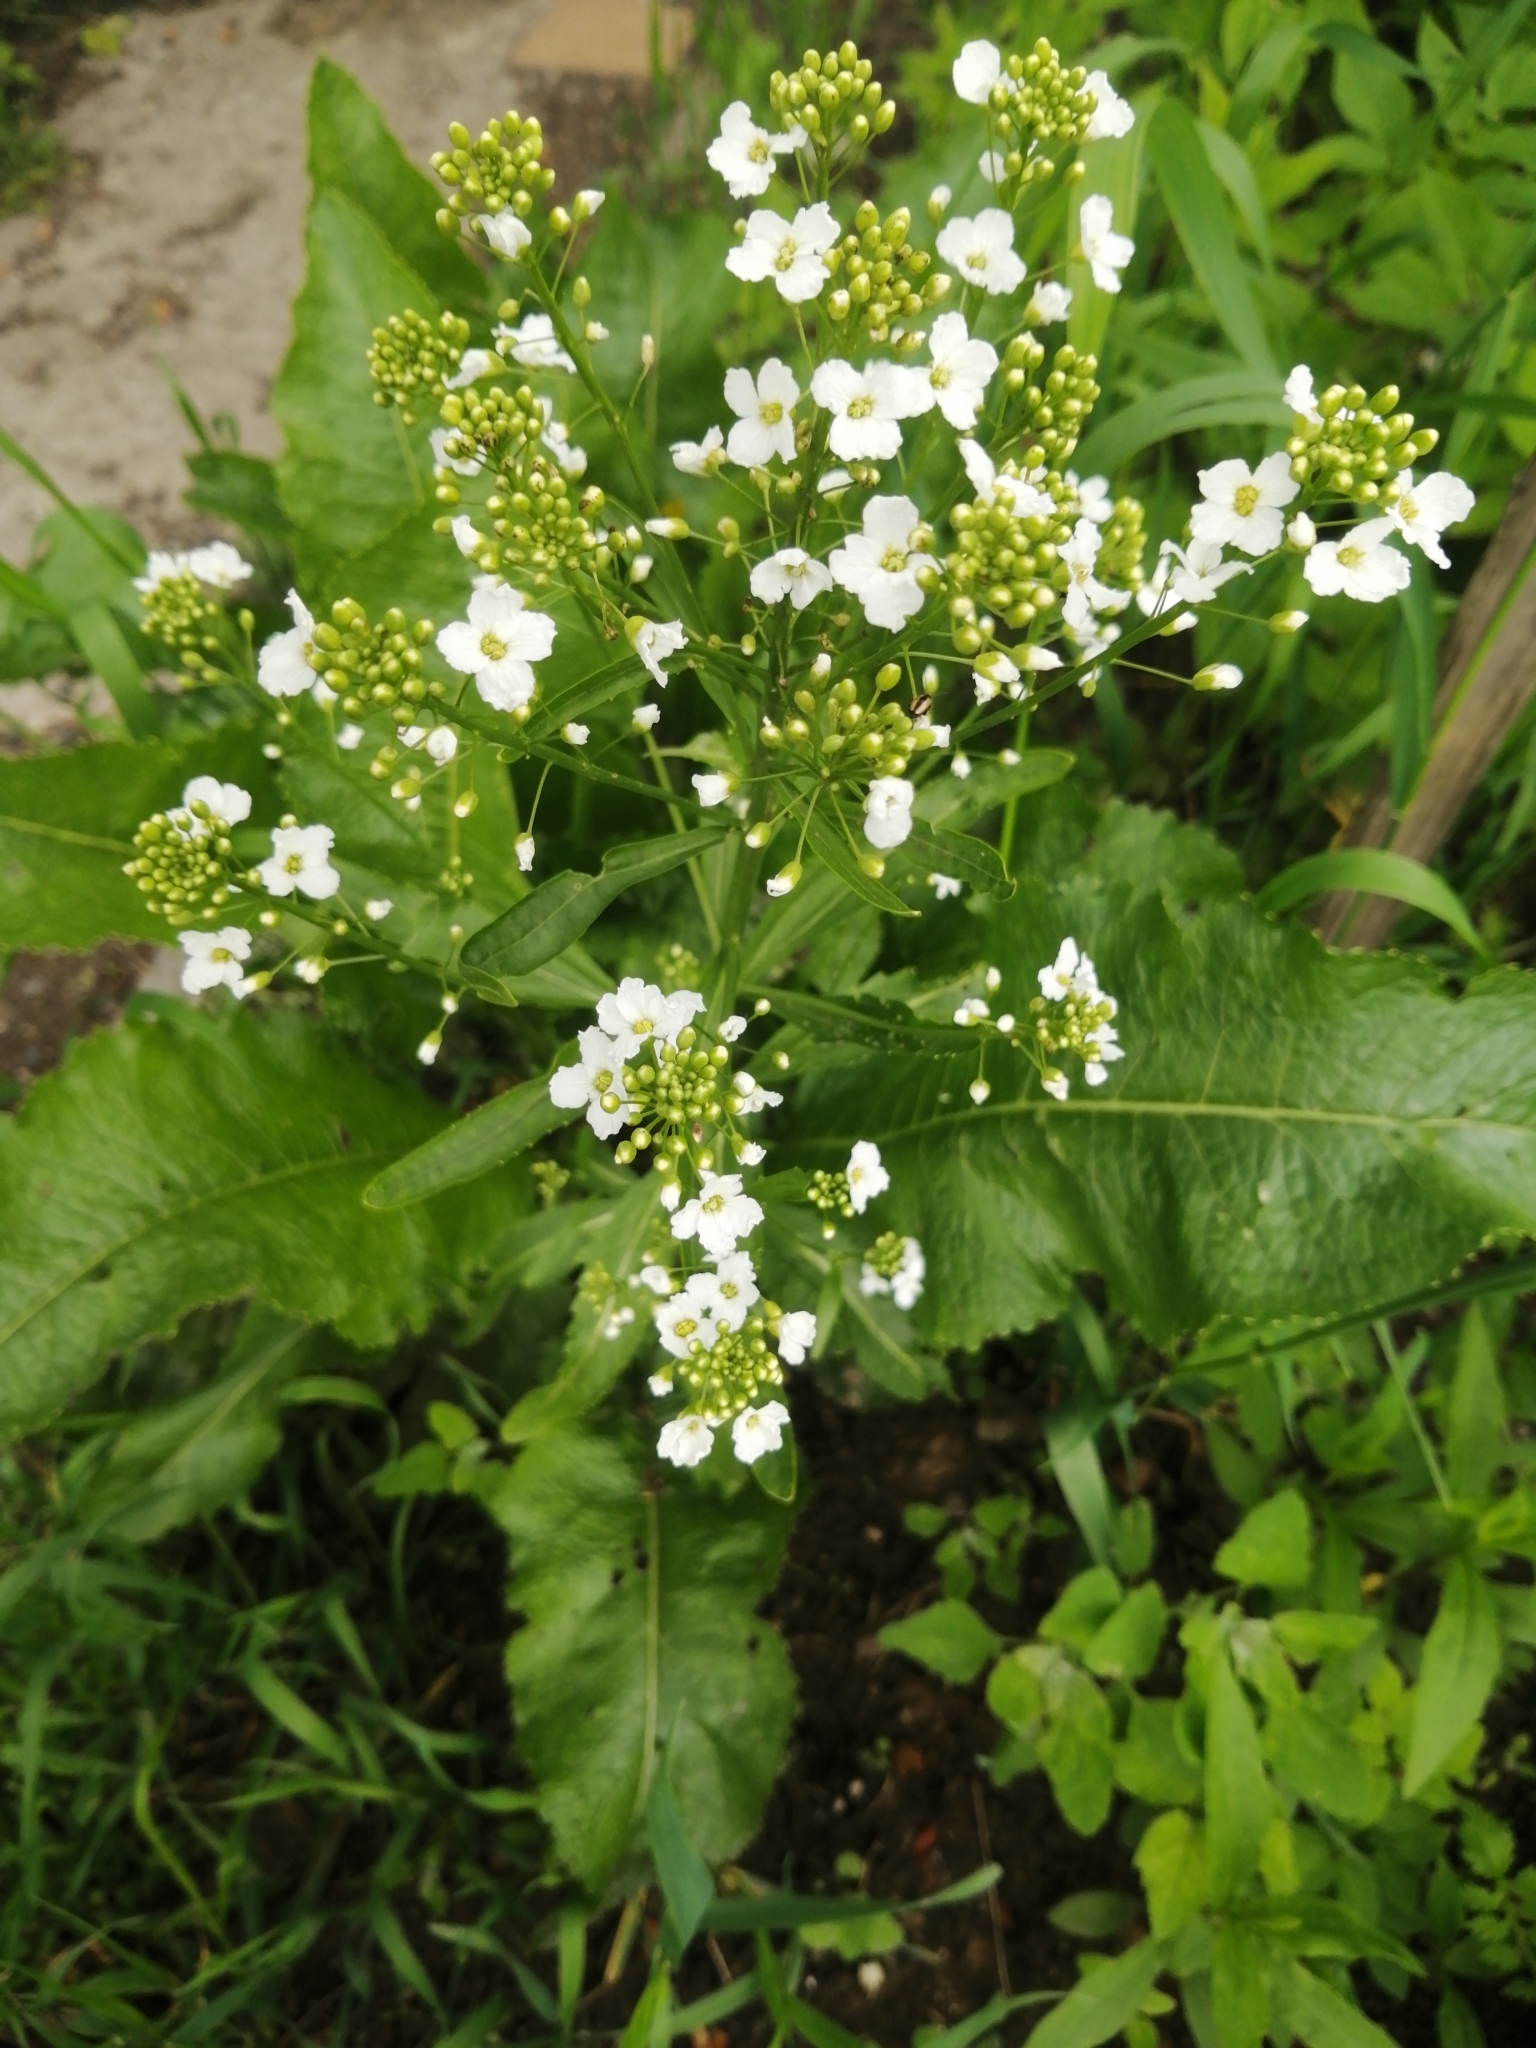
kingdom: Plantae
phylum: Tracheophyta
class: Magnoliopsida
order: Brassicales
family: Brassicaceae
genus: Armoracia
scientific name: Armoracia rusticana
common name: Horseradish
